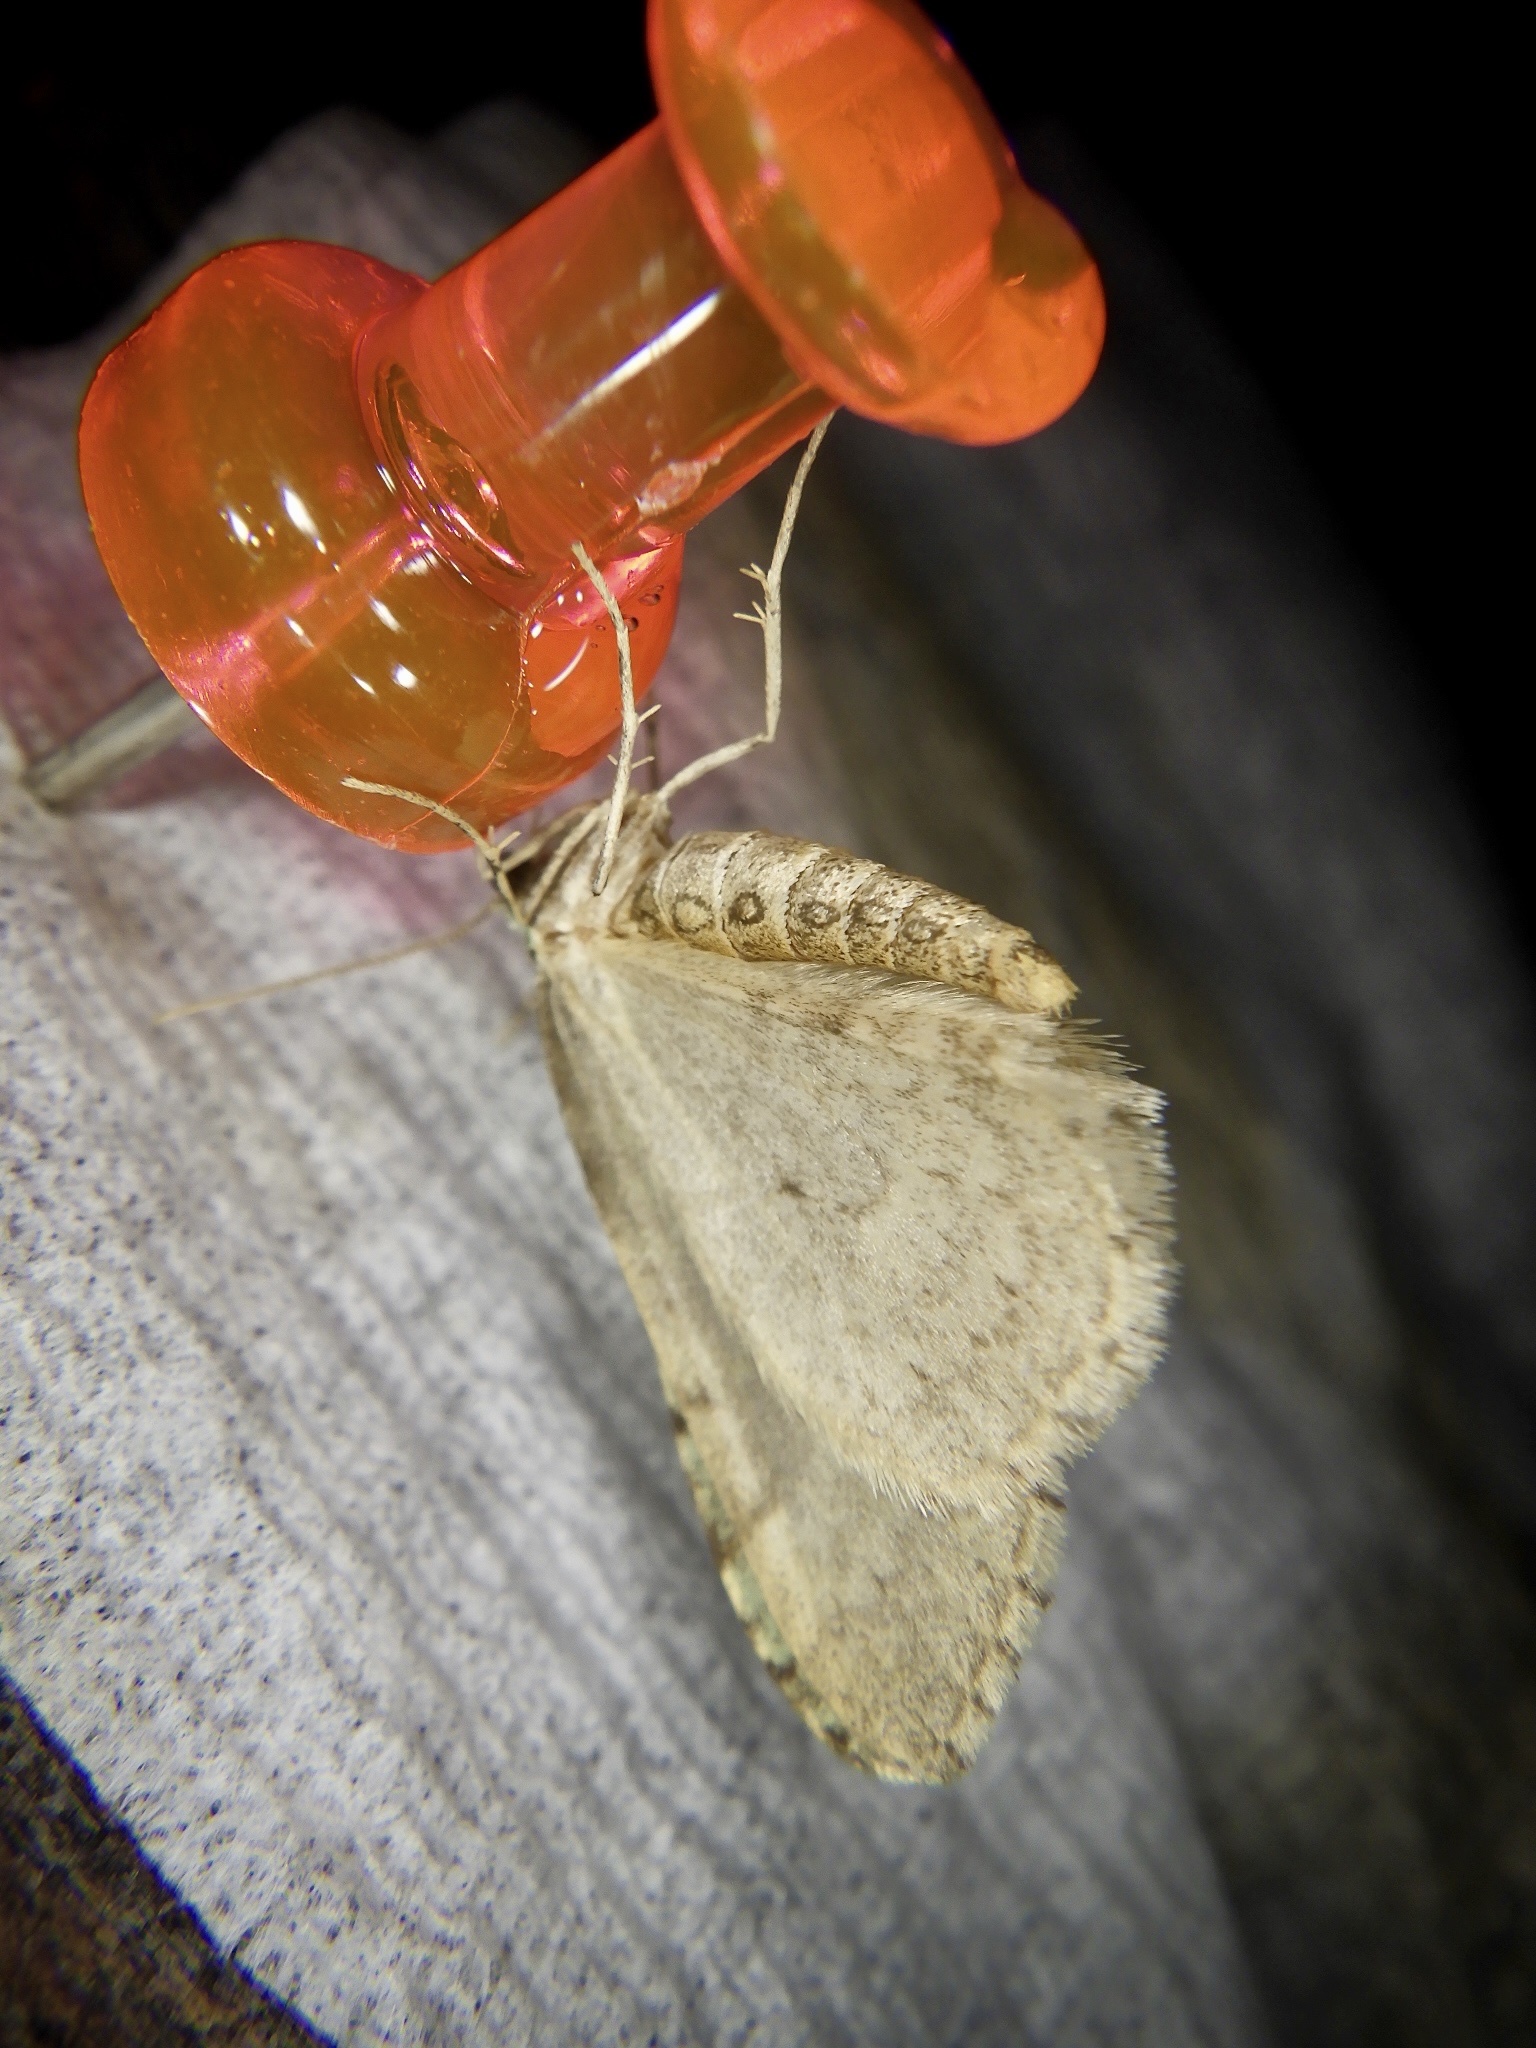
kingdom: Animalia
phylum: Arthropoda
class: Insecta
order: Lepidoptera
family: Geometridae
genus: Epirrita
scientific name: Epirrita viridipurpurescens
